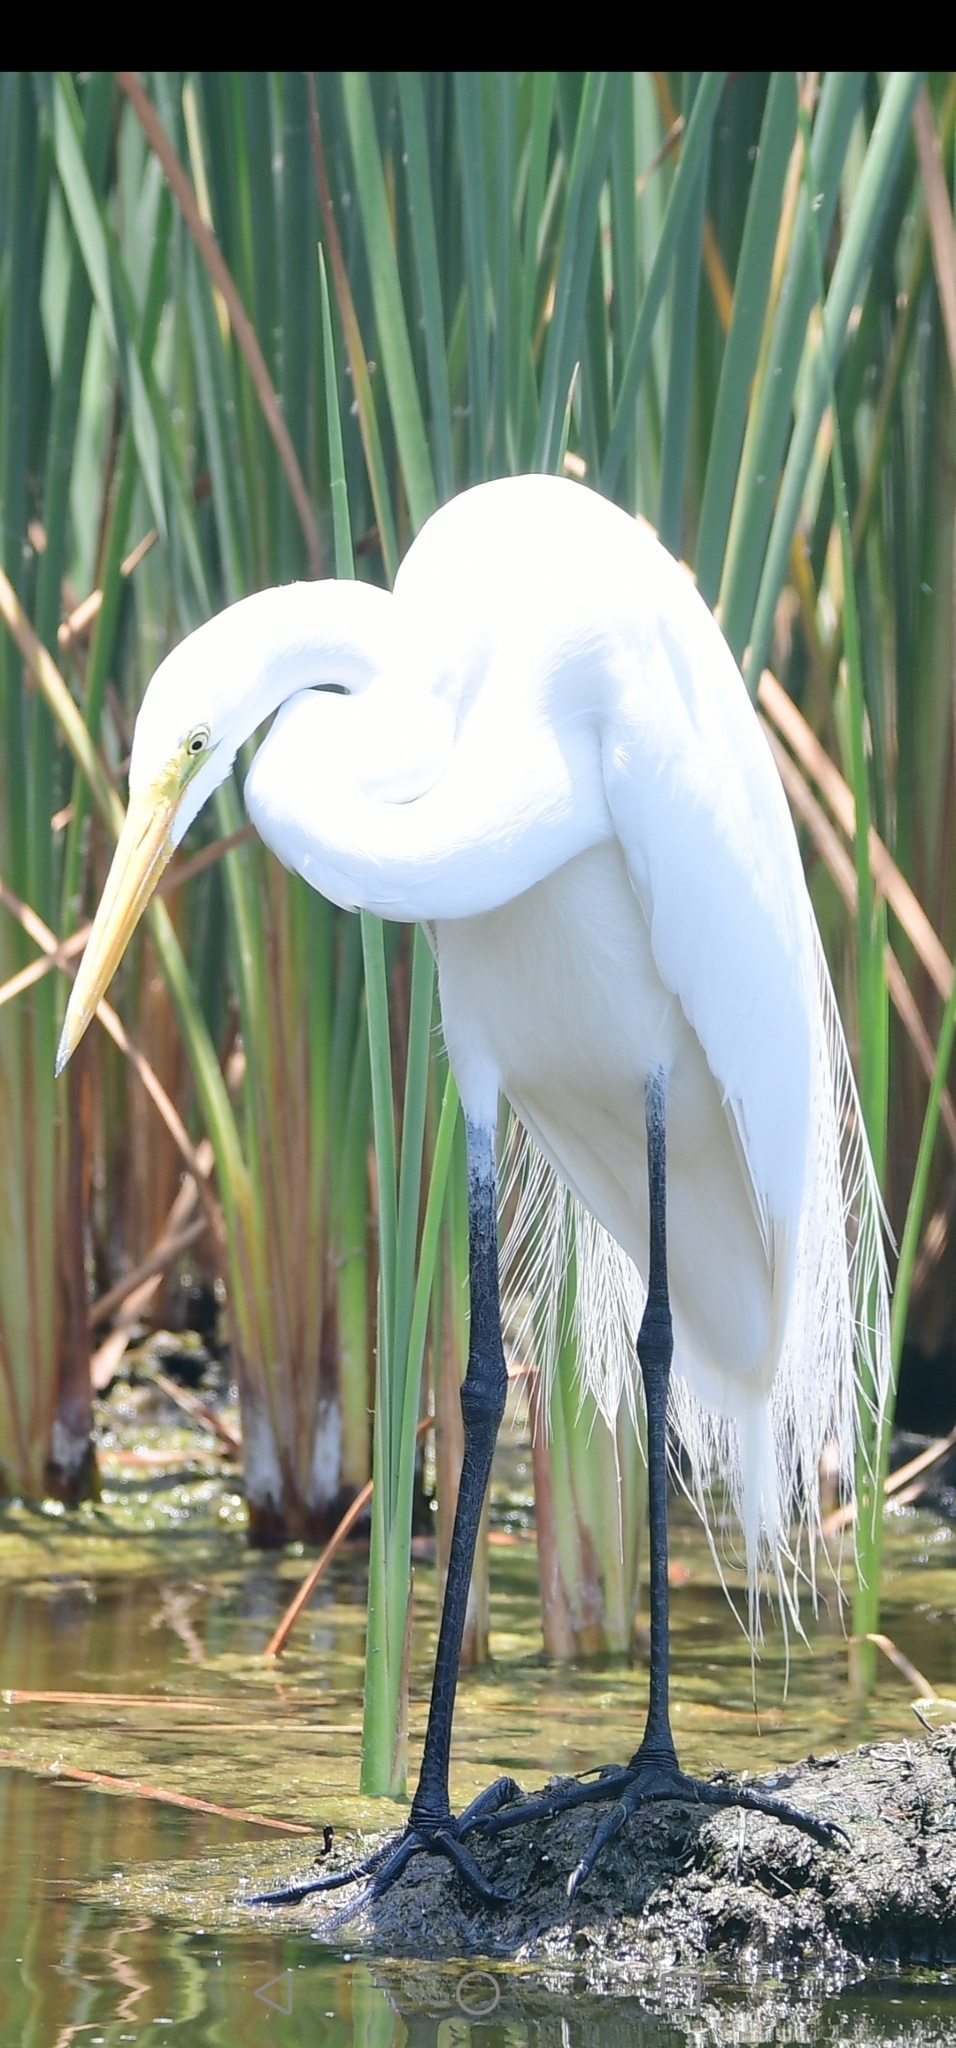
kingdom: Animalia
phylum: Chordata
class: Aves
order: Pelecaniformes
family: Ardeidae
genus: Ardea
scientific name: Ardea alba
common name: Great egret
